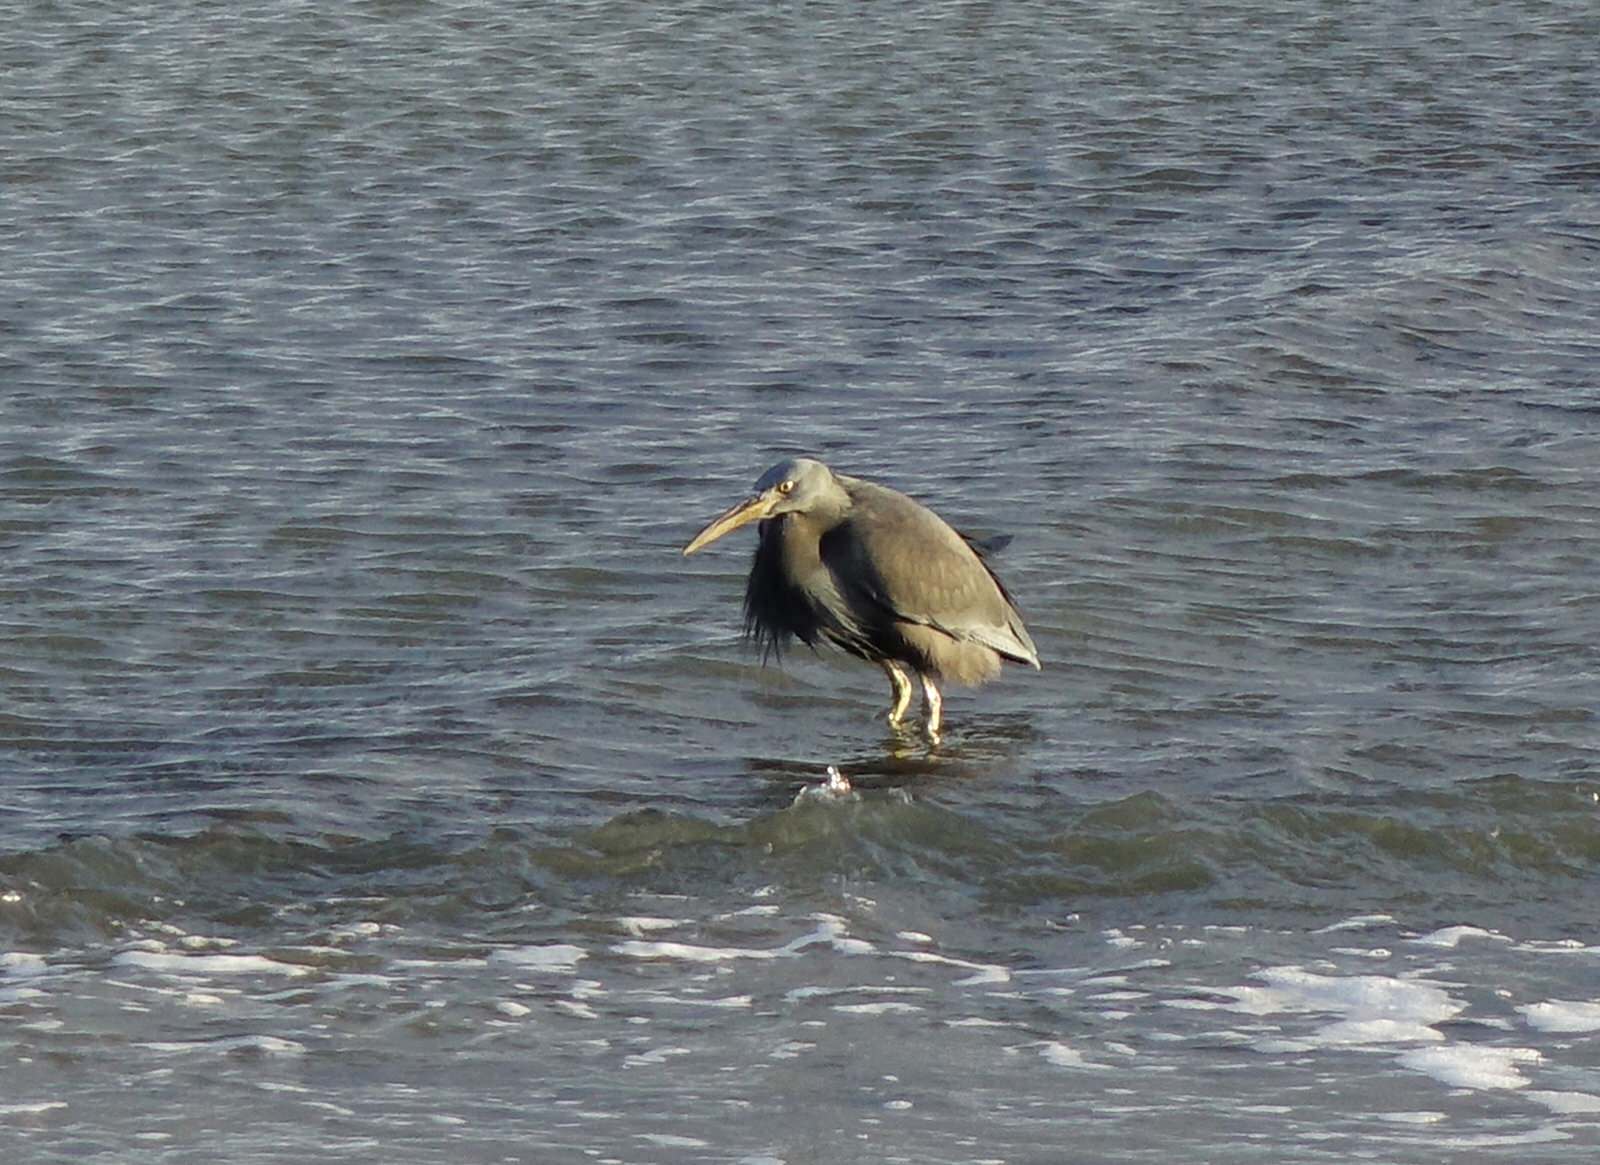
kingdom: Animalia
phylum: Chordata
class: Aves
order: Pelecaniformes
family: Ardeidae
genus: Egretta
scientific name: Egretta sacra
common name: Pacific reef heron
